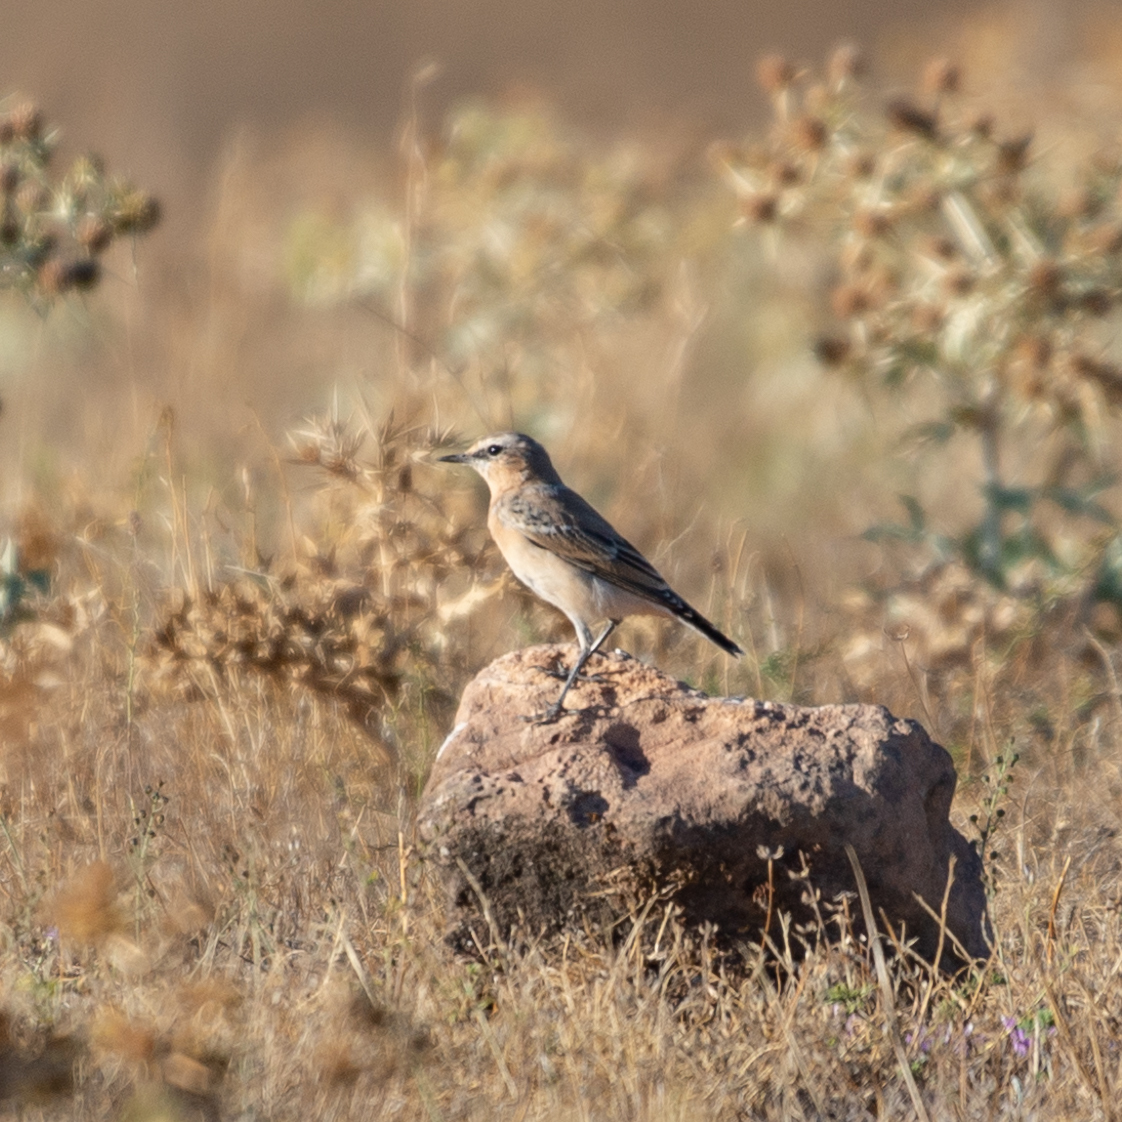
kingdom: Animalia
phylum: Chordata
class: Aves
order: Passeriformes
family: Muscicapidae
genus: Oenanthe
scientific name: Oenanthe oenanthe
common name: Northern wheatear
